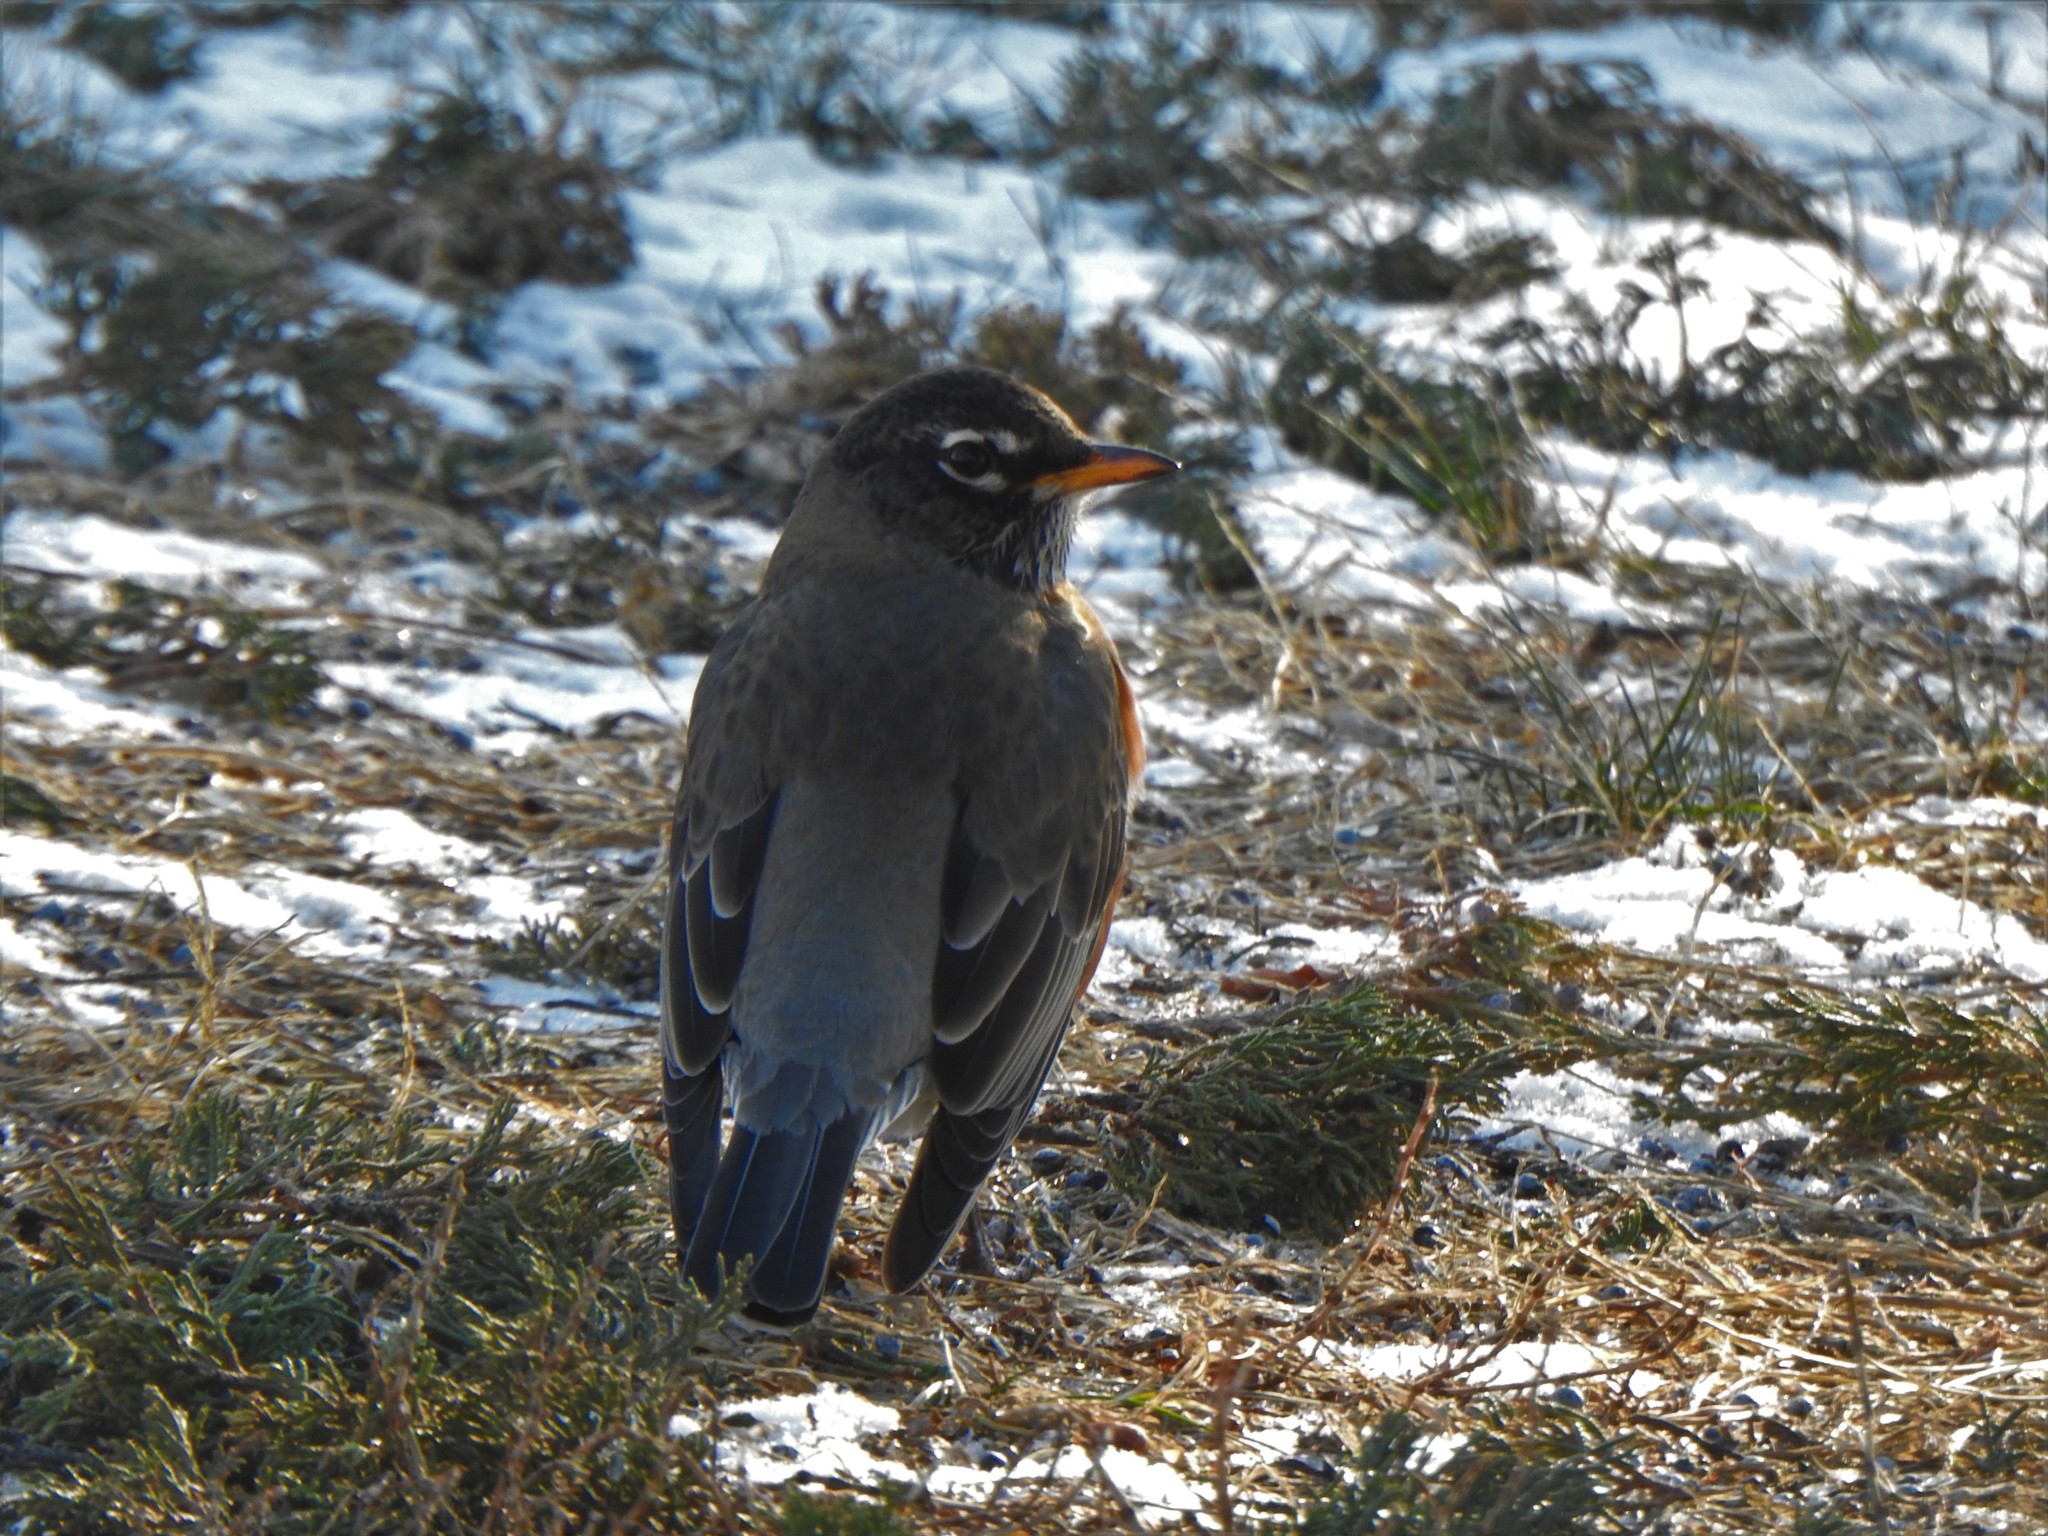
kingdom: Animalia
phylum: Chordata
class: Aves
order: Passeriformes
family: Turdidae
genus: Turdus
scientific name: Turdus migratorius
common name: American robin
